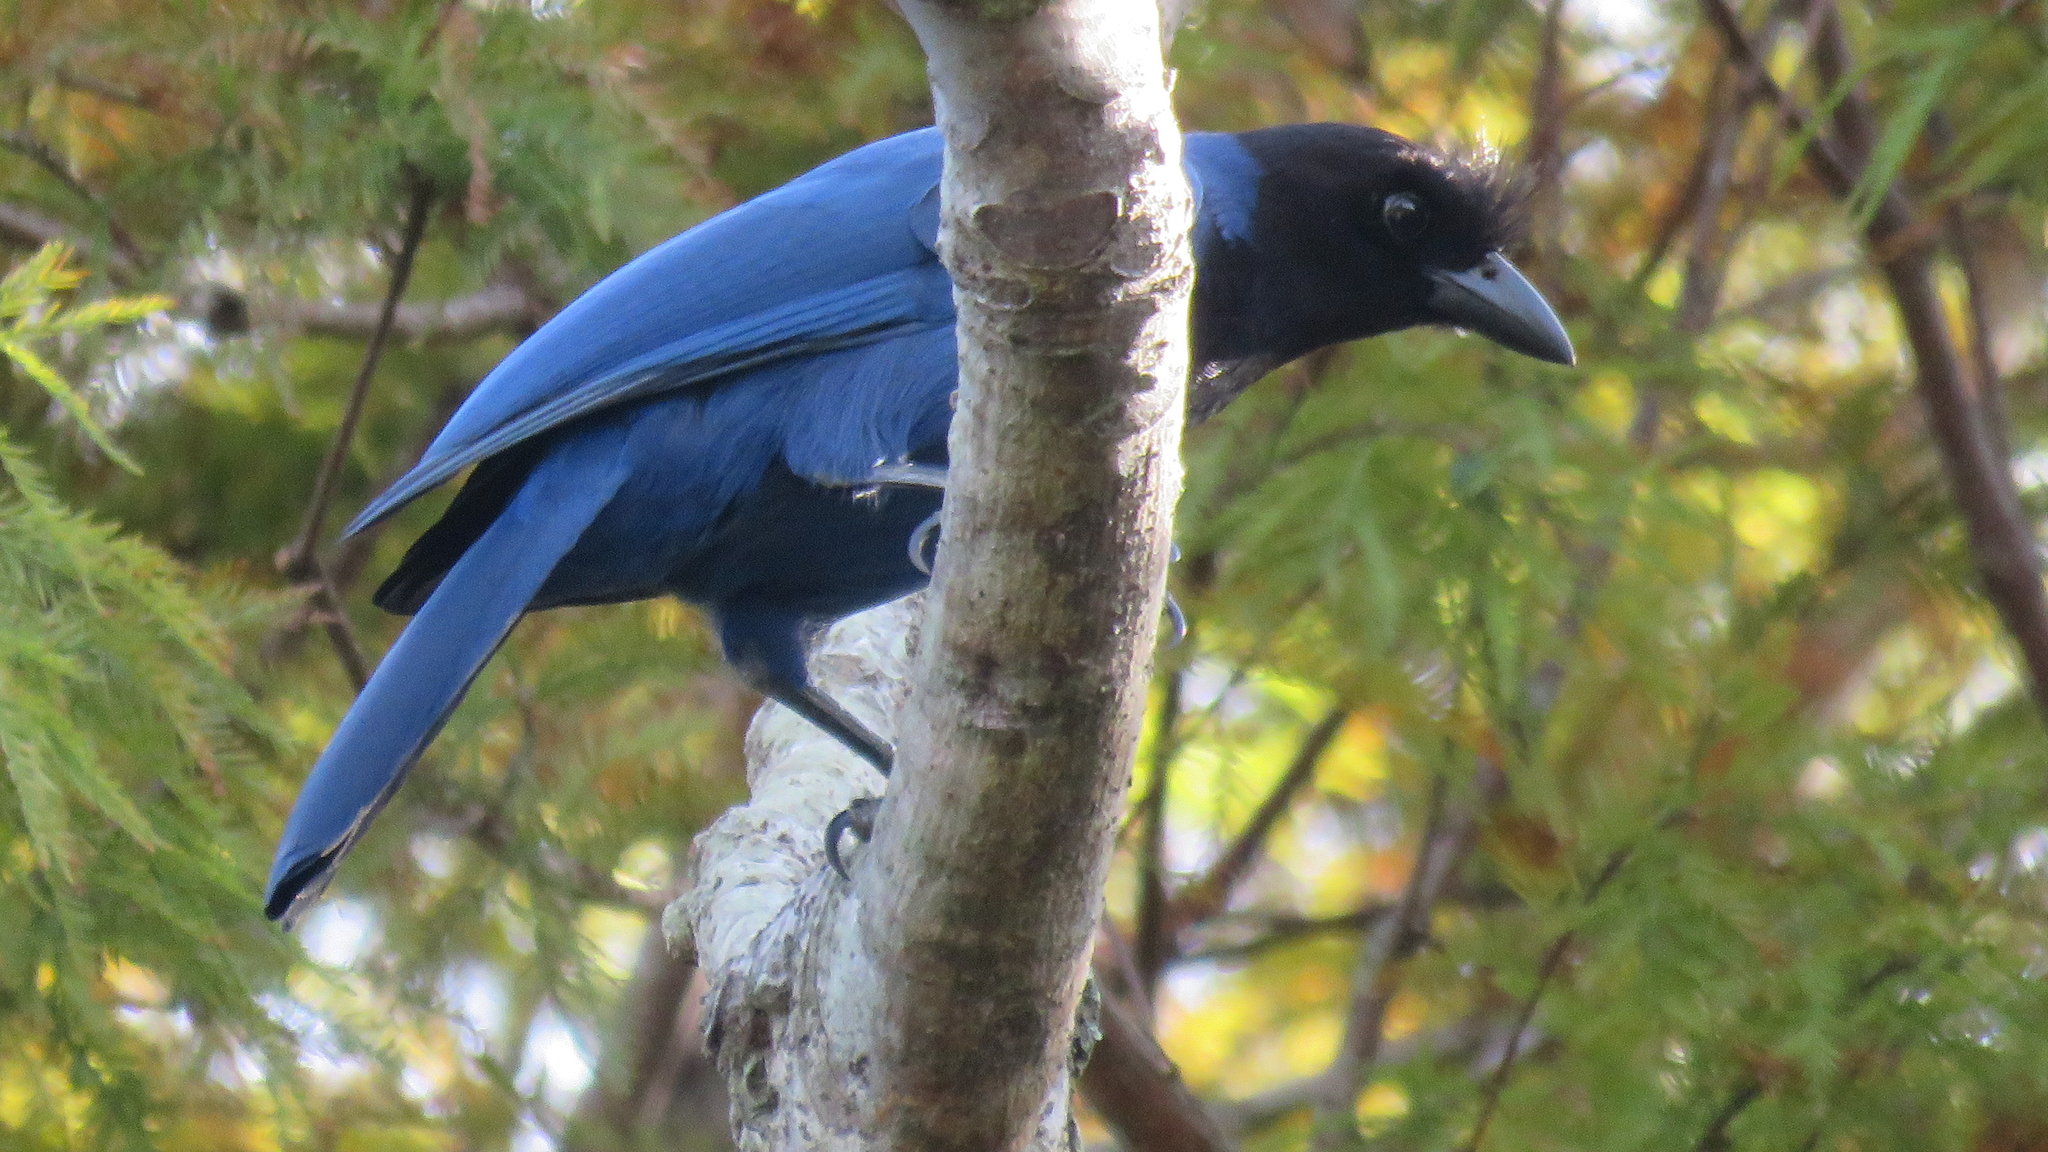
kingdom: Animalia
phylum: Chordata
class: Aves
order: Passeriformes
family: Corvidae
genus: Cyanocorax
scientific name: Cyanocorax caeruleus
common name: Azure jay
